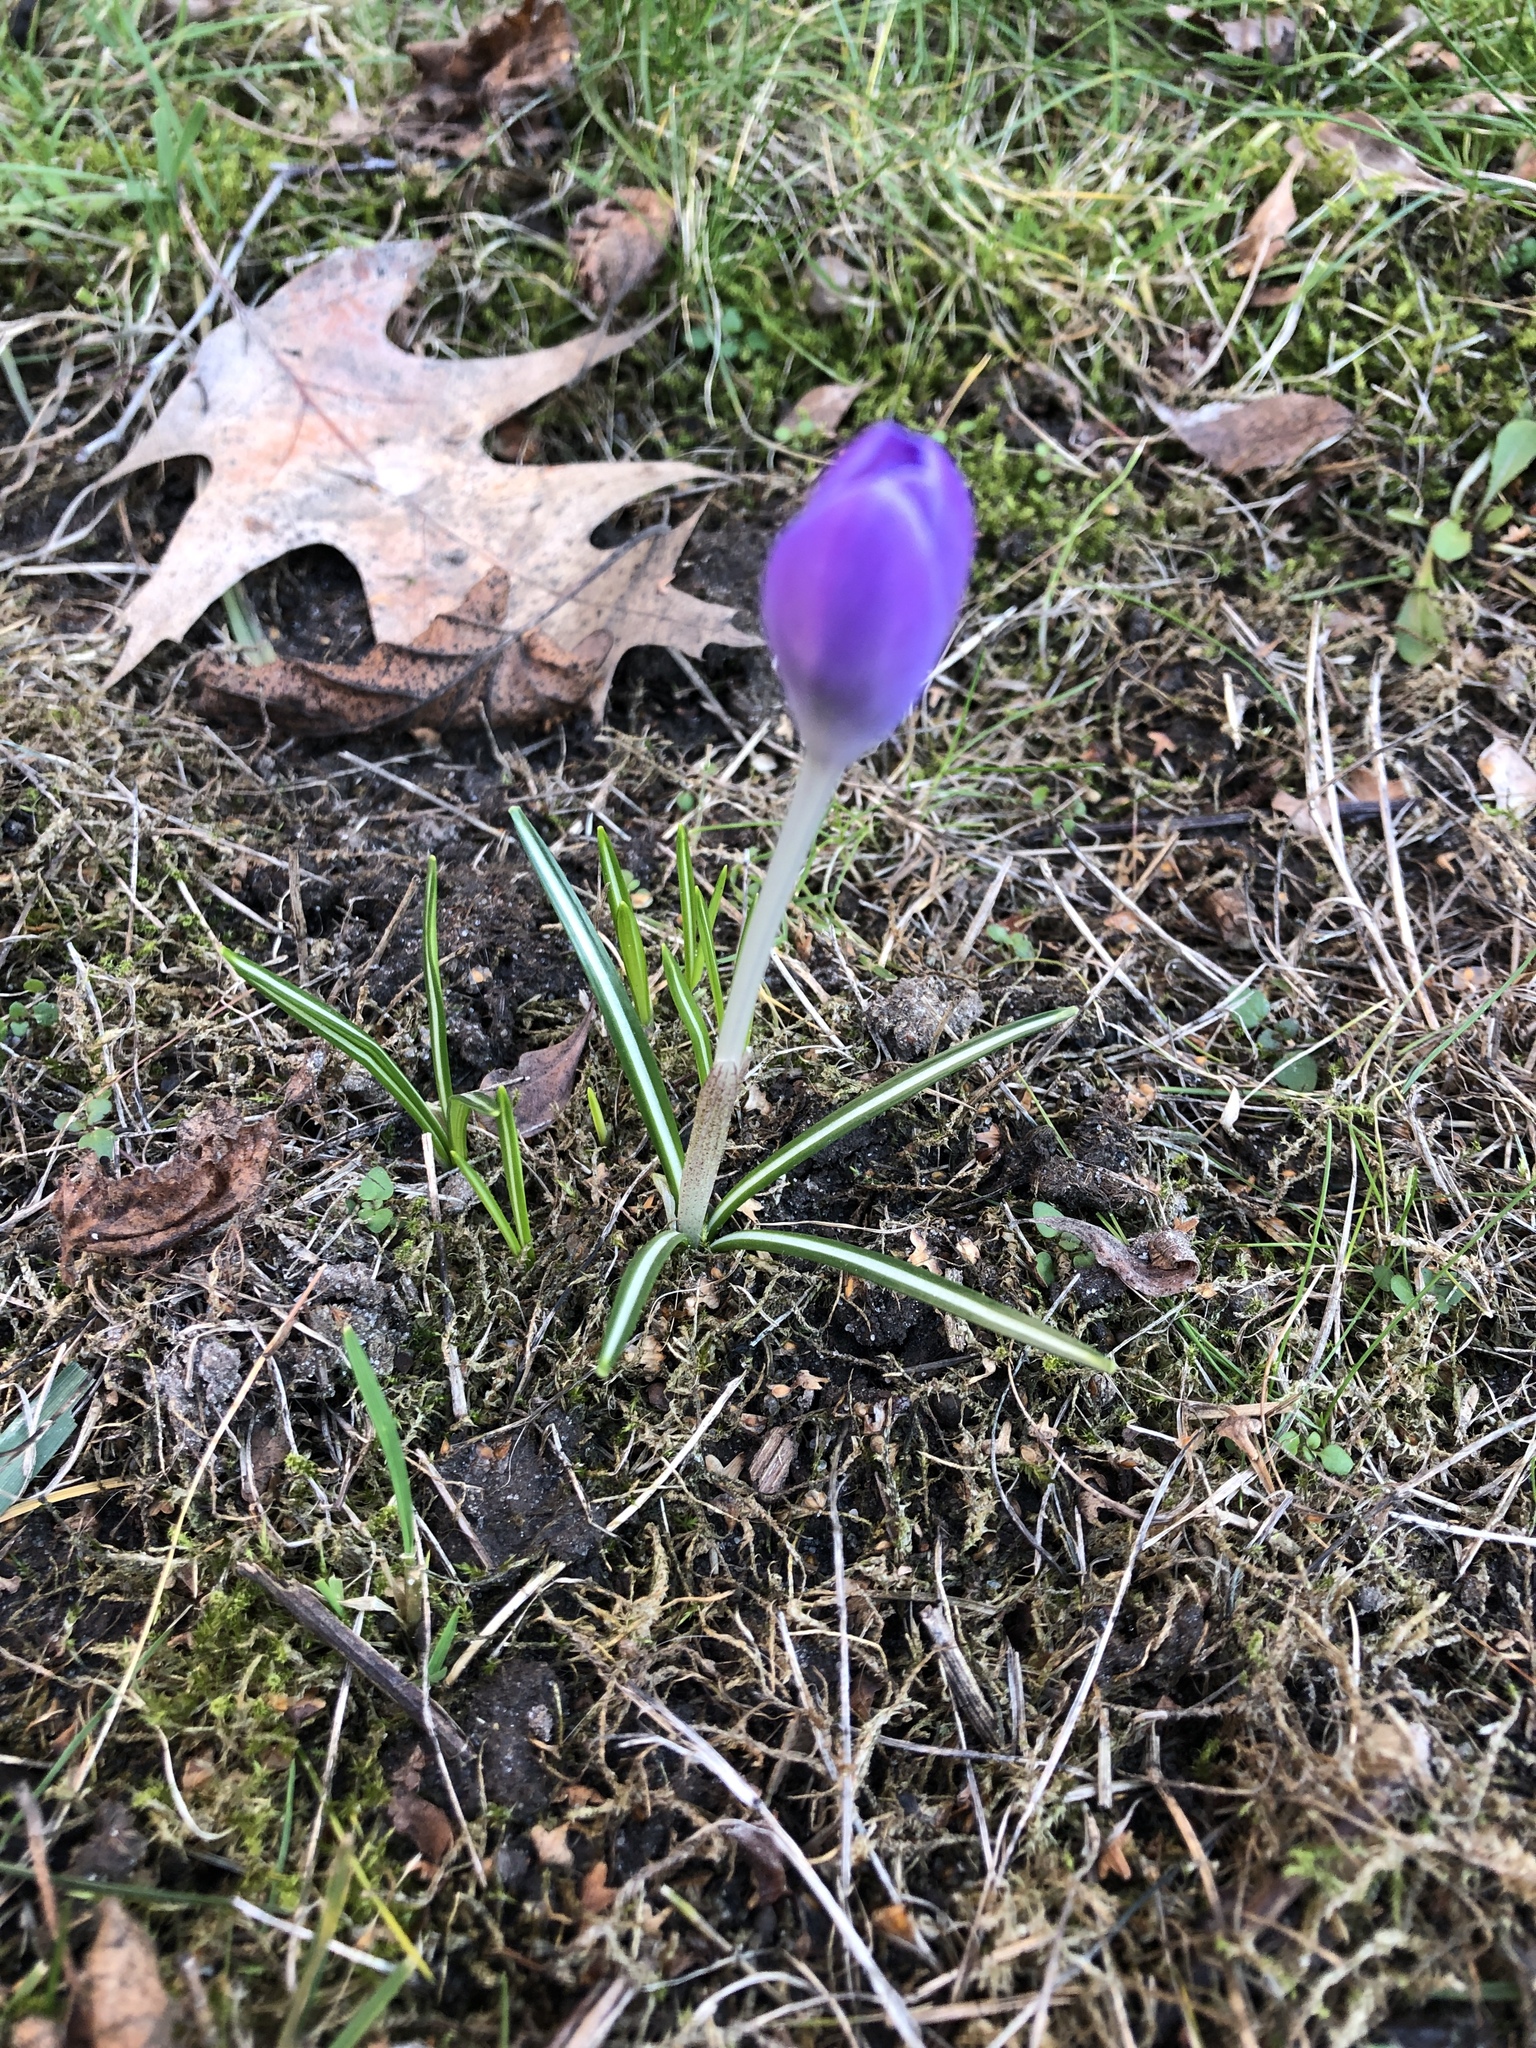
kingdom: Plantae
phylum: Tracheophyta
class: Liliopsida
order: Asparagales
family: Iridaceae
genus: Crocus
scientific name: Crocus tommasinianus
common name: Early crocus
